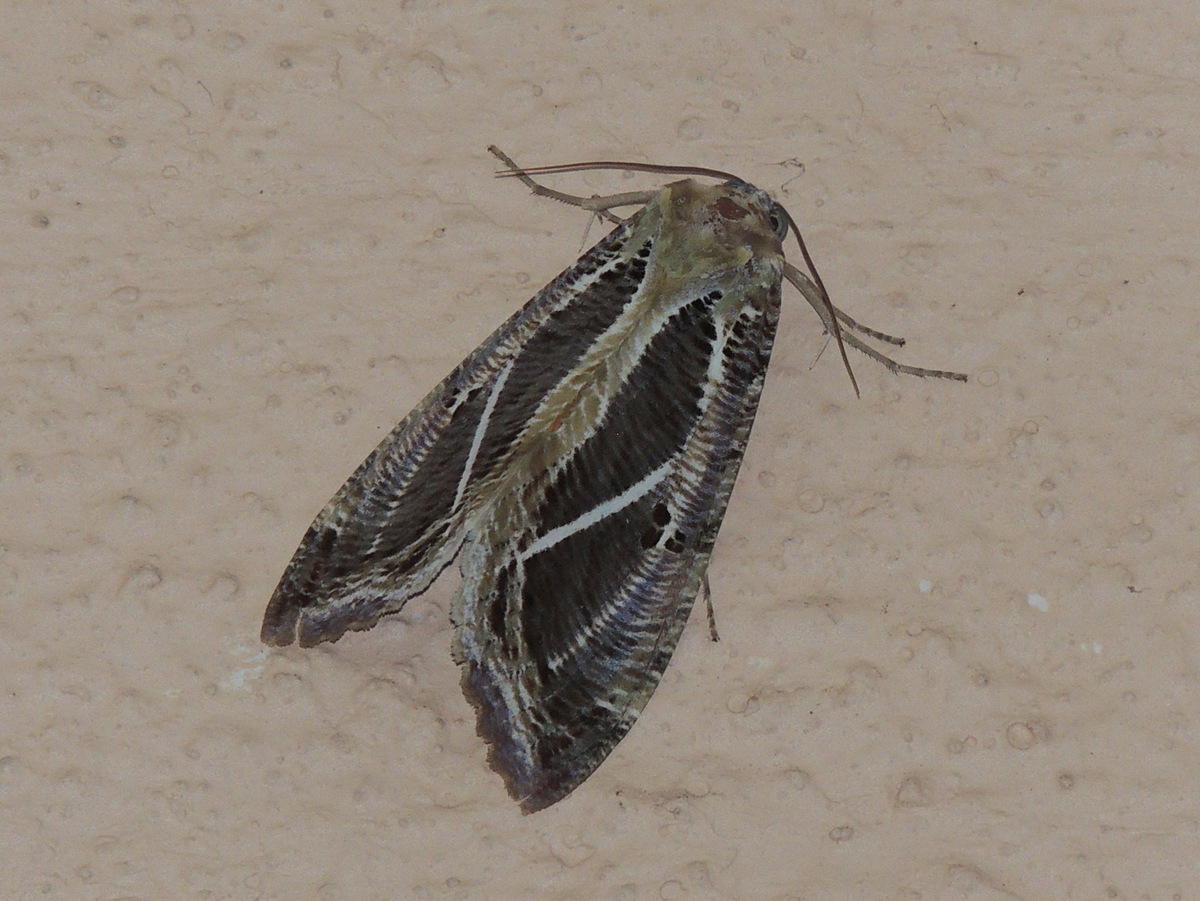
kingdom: Animalia
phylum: Arthropoda
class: Insecta
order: Lepidoptera
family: Erebidae
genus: Eudocima
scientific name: Eudocima materna
